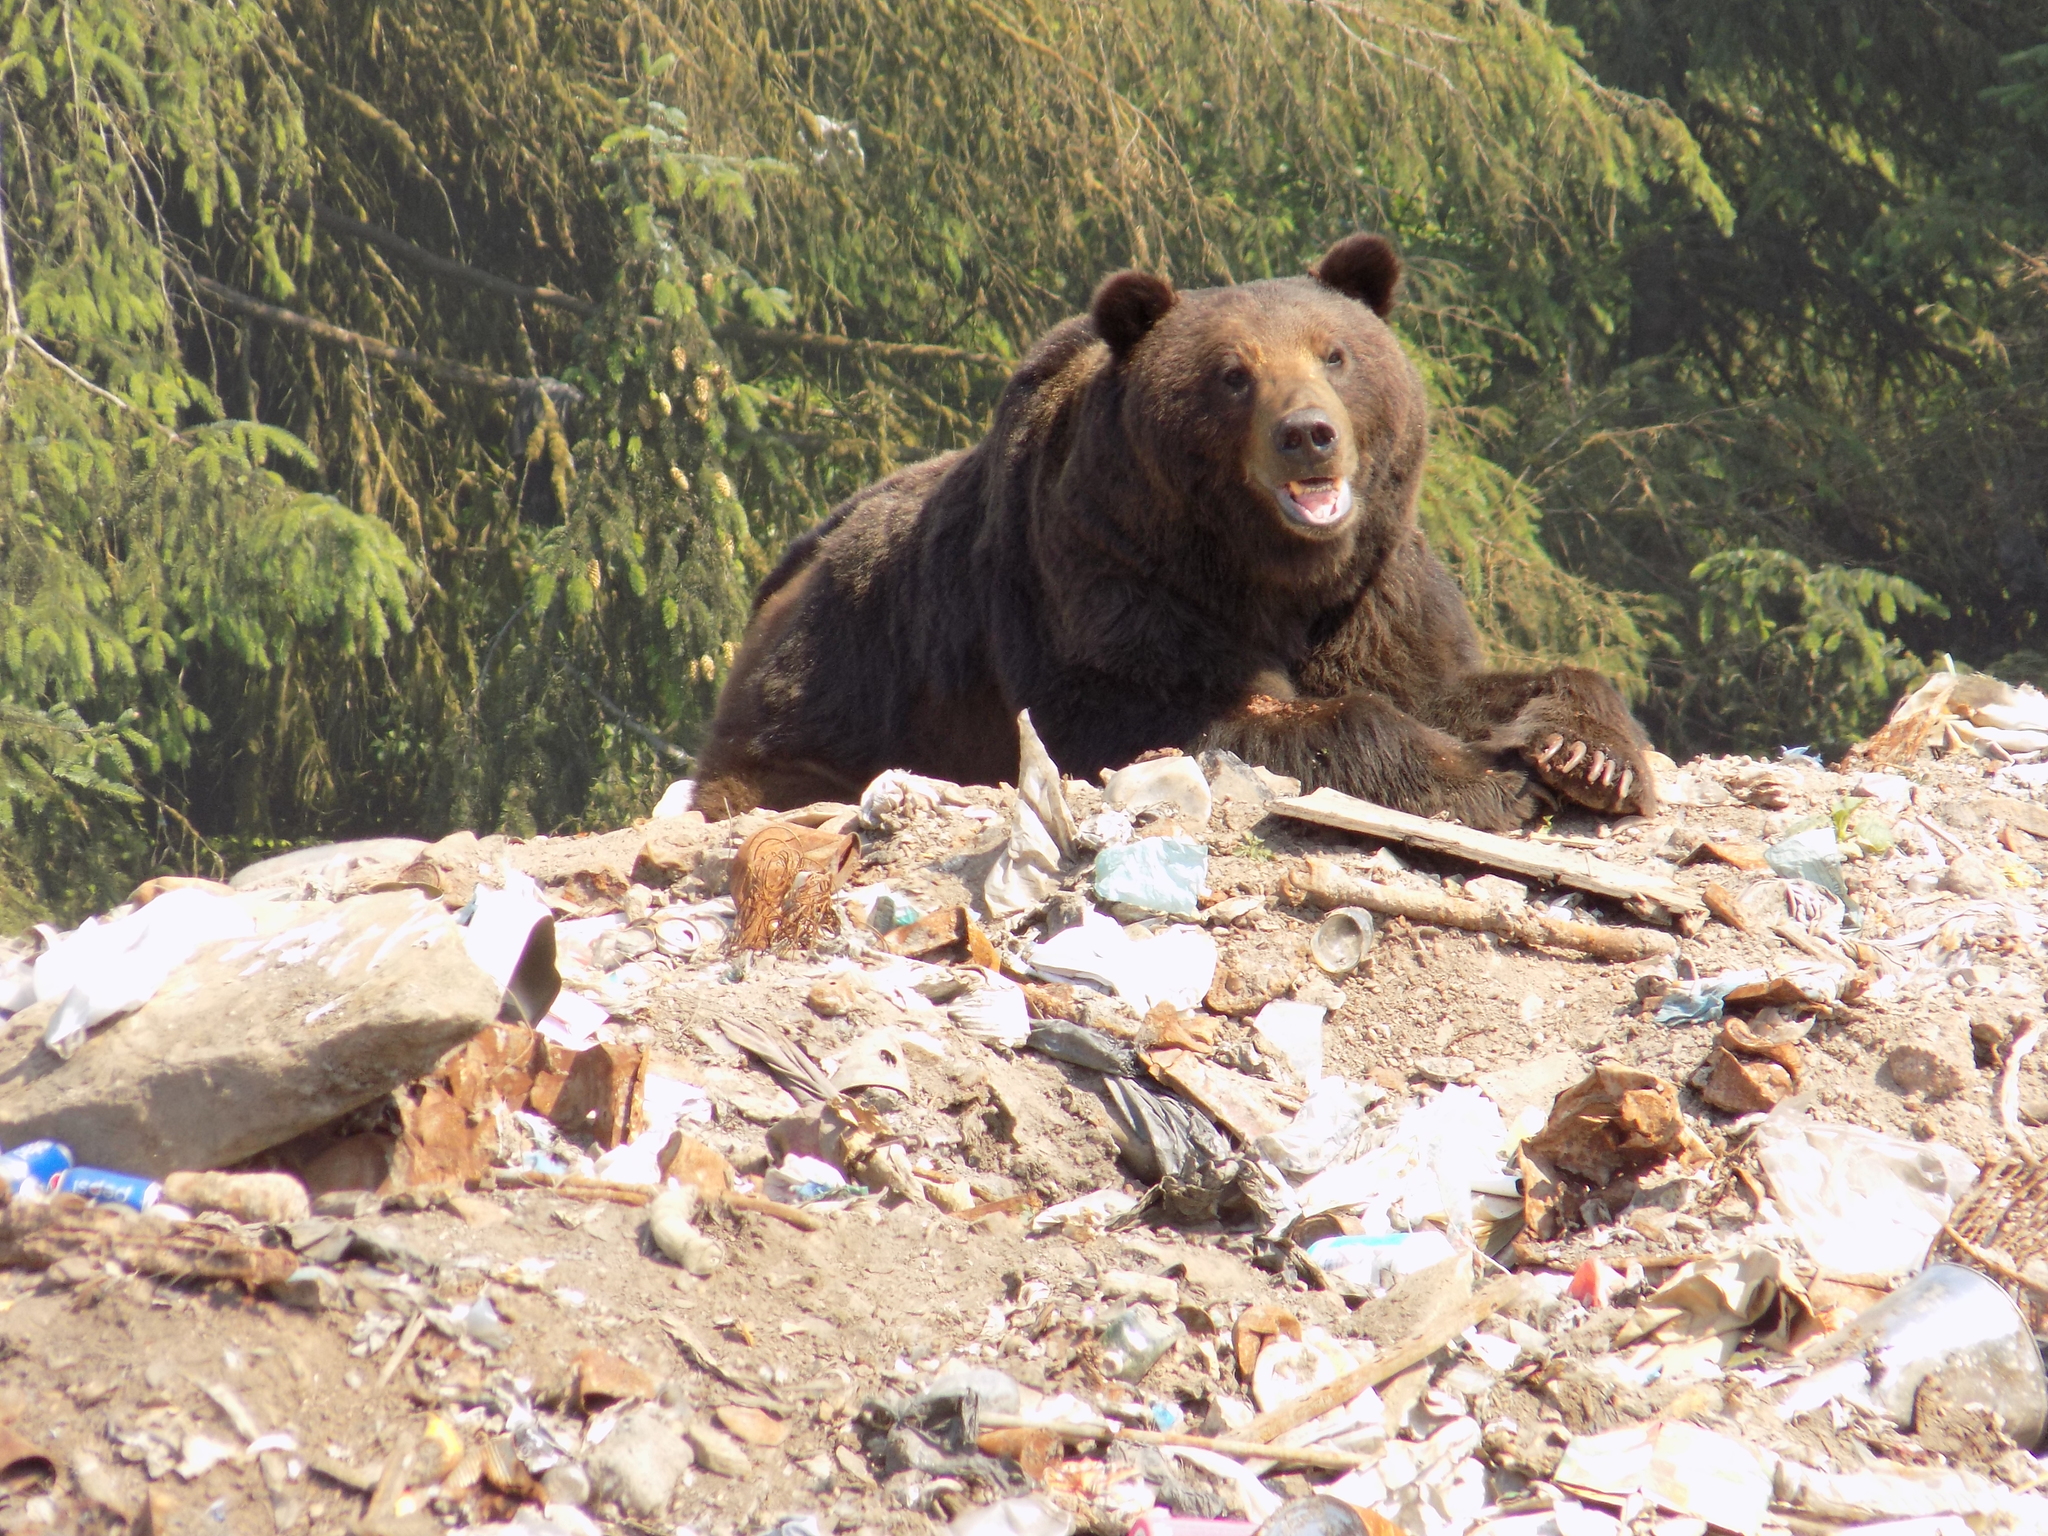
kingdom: Animalia
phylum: Chordata
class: Mammalia
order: Carnivora
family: Ursidae
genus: Ursus
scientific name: Ursus arctos
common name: Brown bear
